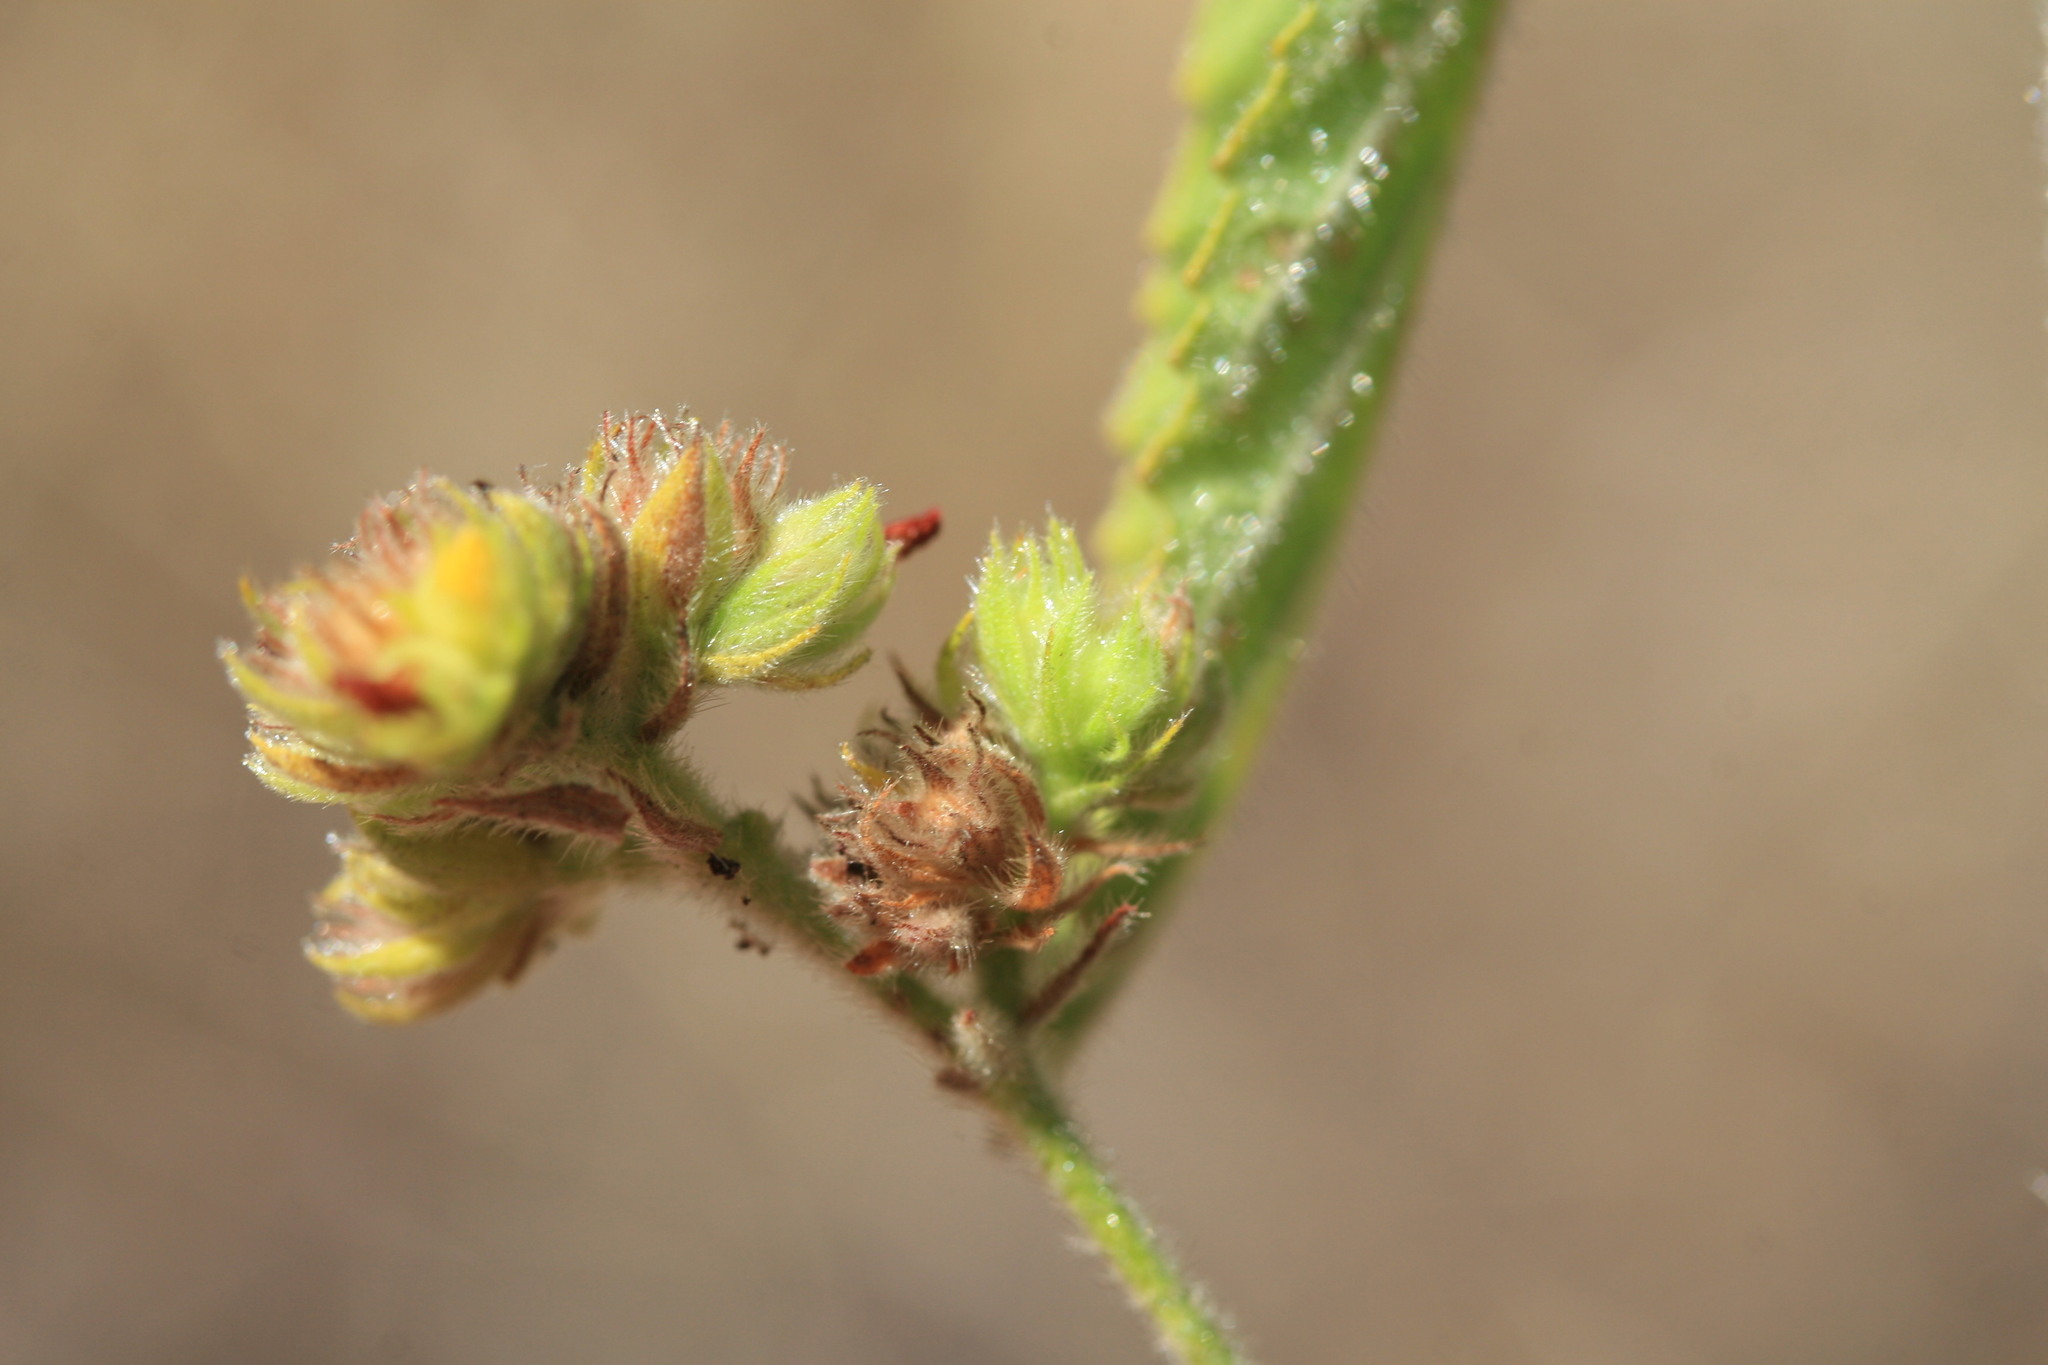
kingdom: Plantae
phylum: Tracheophyta
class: Magnoliopsida
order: Malvales
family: Malvaceae
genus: Waltheria
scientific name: Waltheria indica
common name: Leather-coat
